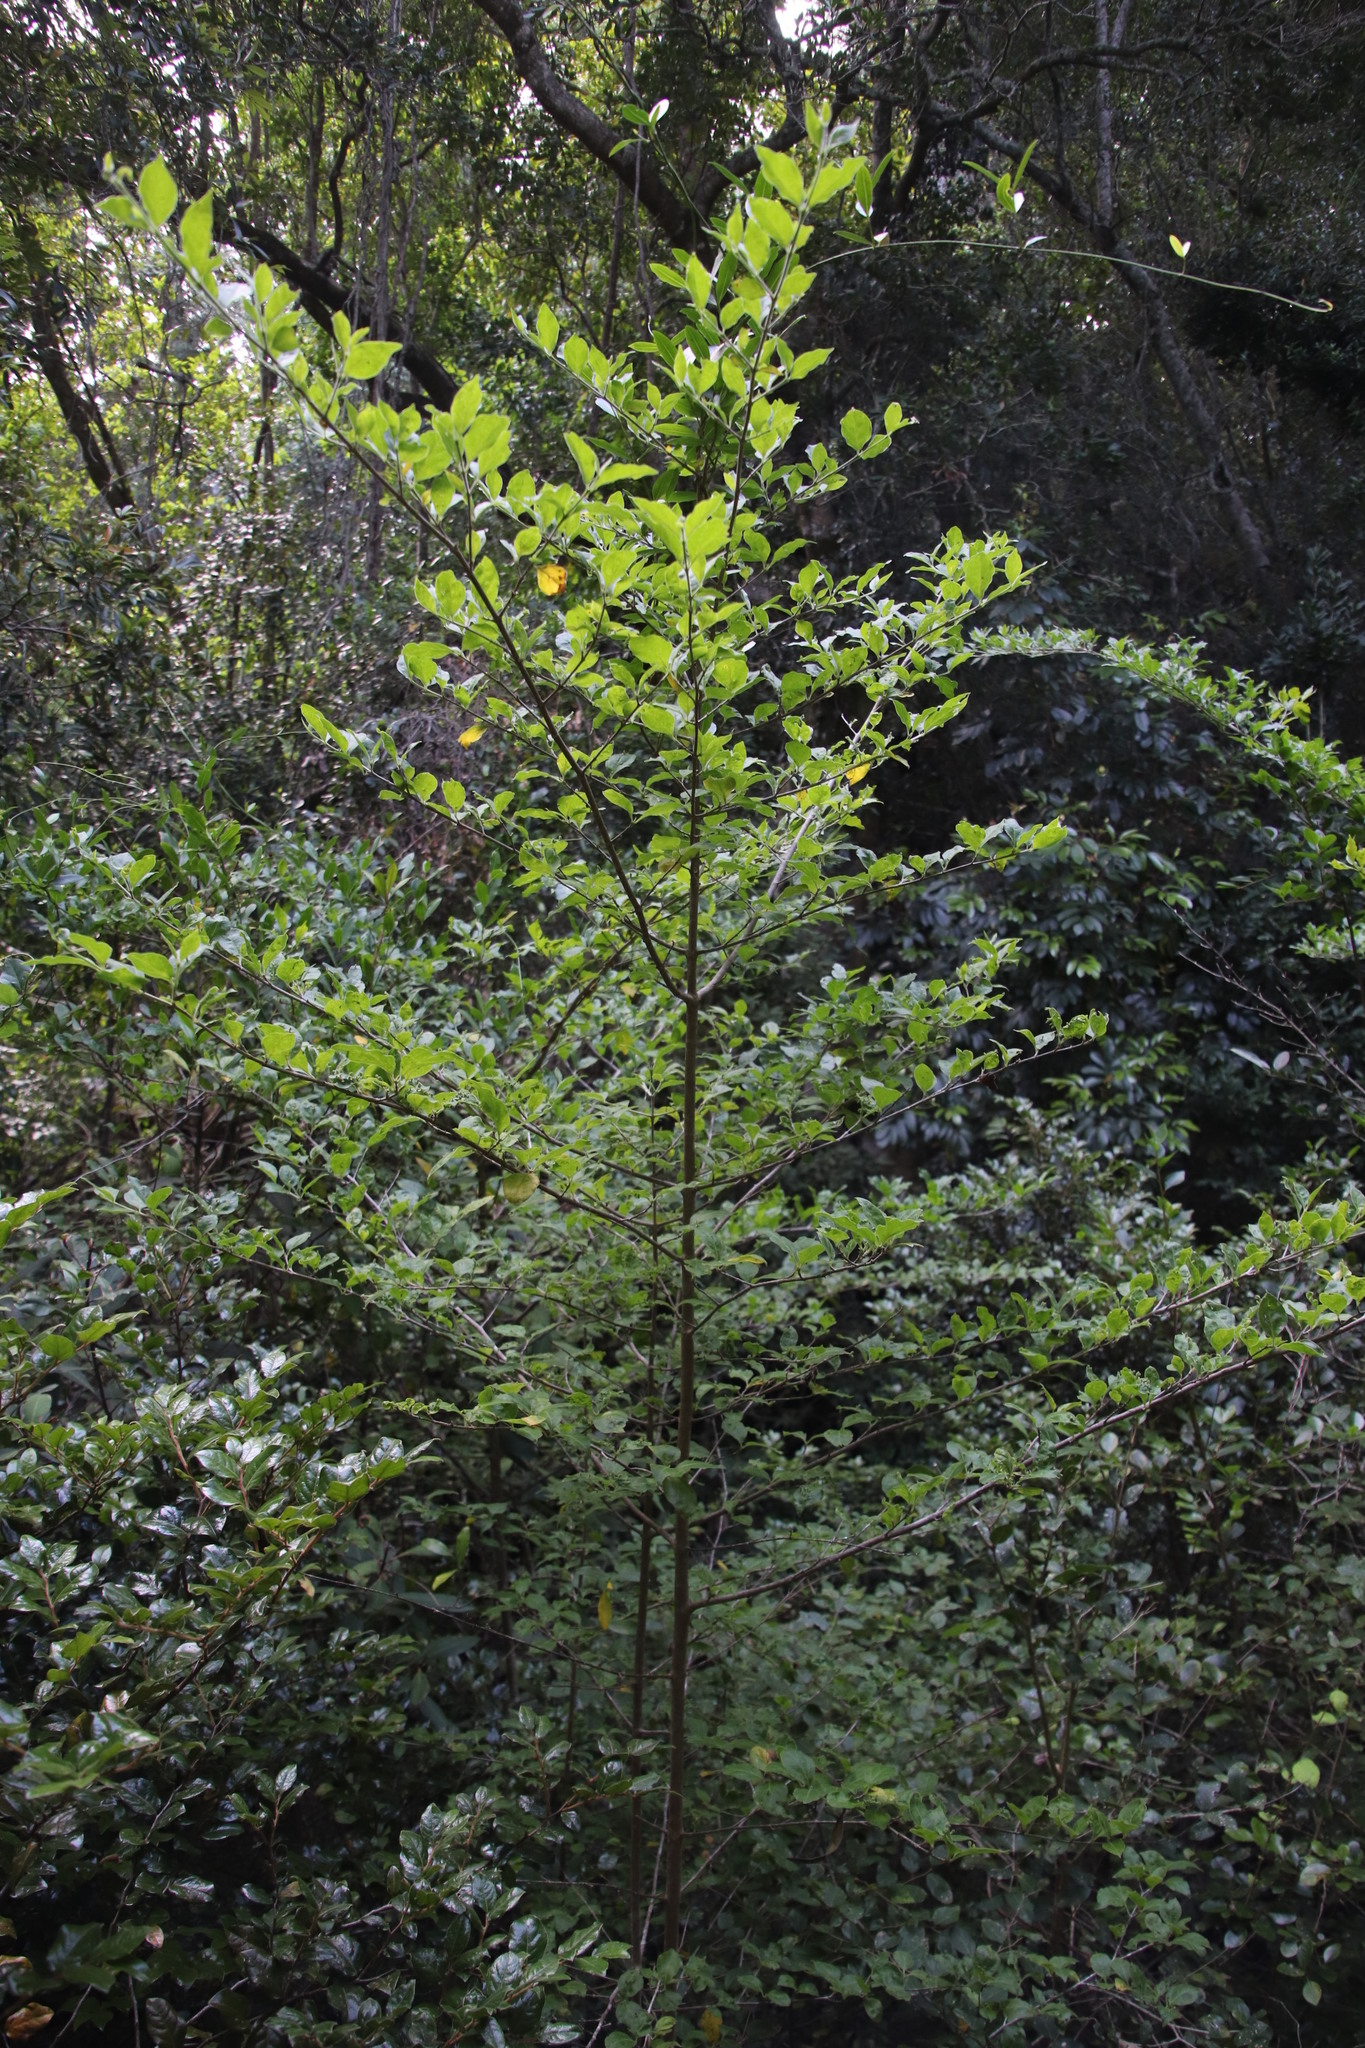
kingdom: Plantae
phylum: Tracheophyta
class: Magnoliopsida
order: Gentianales
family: Rubiaceae
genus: Afrocanthium
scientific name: Afrocanthium mundianum
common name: Rock-alder
